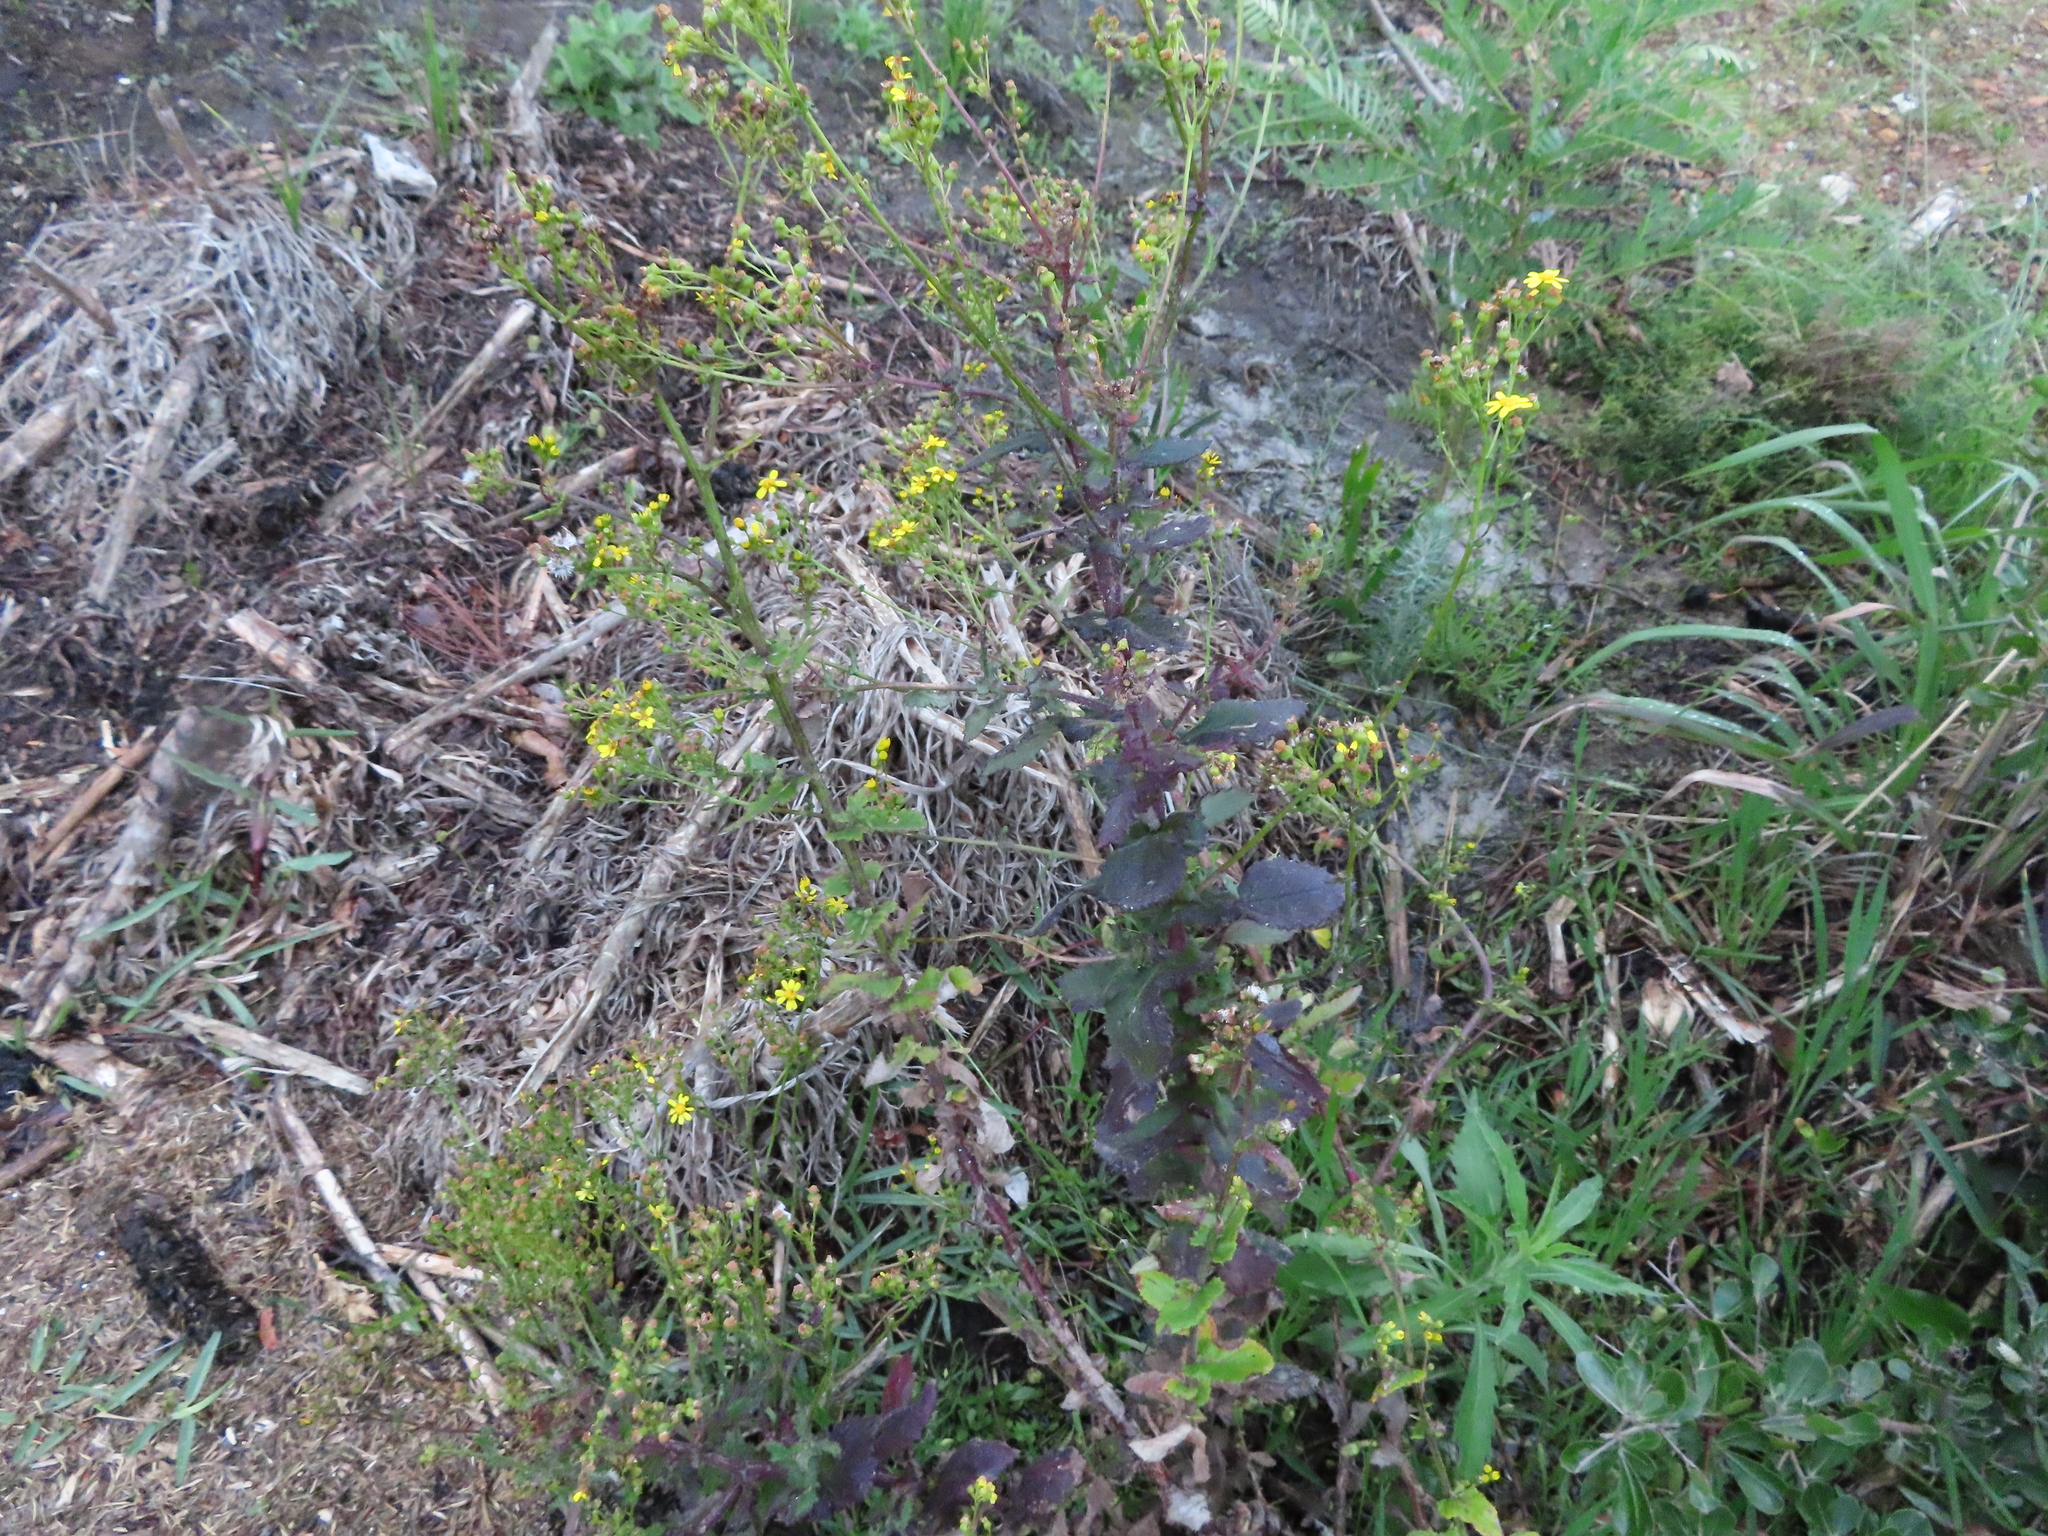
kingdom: Plantae
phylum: Tracheophyta
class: Magnoliopsida
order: Asterales
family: Asteraceae
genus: Senecio
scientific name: Senecio subcanescens
